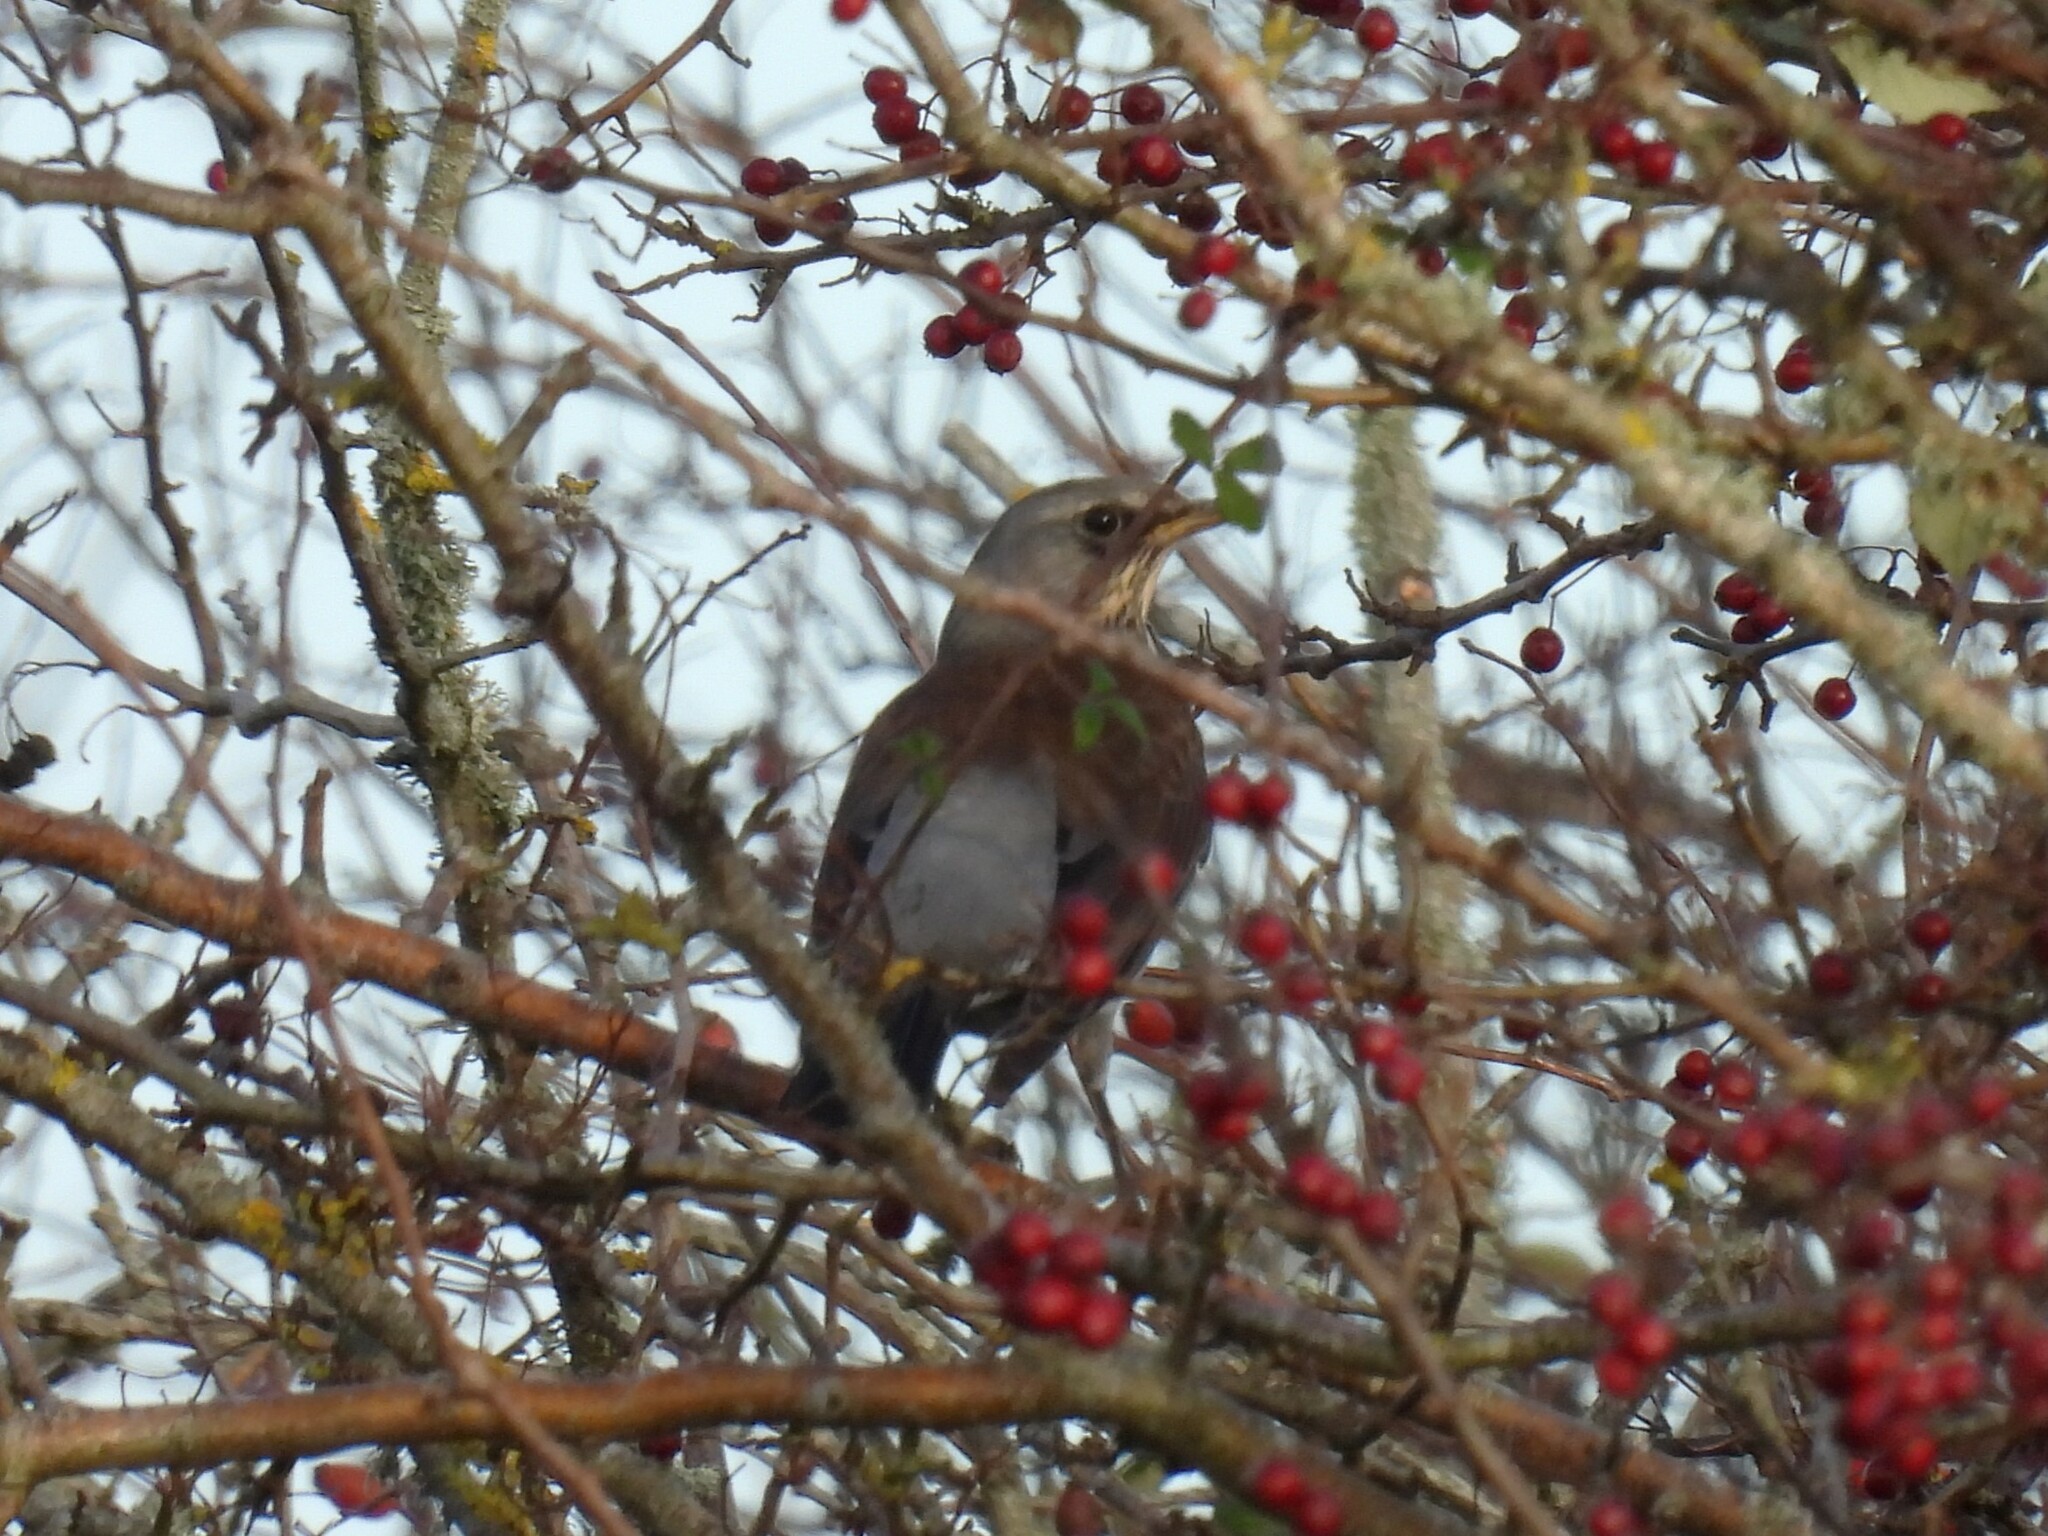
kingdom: Animalia
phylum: Chordata
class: Aves
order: Passeriformes
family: Turdidae
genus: Turdus
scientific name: Turdus pilaris
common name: Fieldfare
